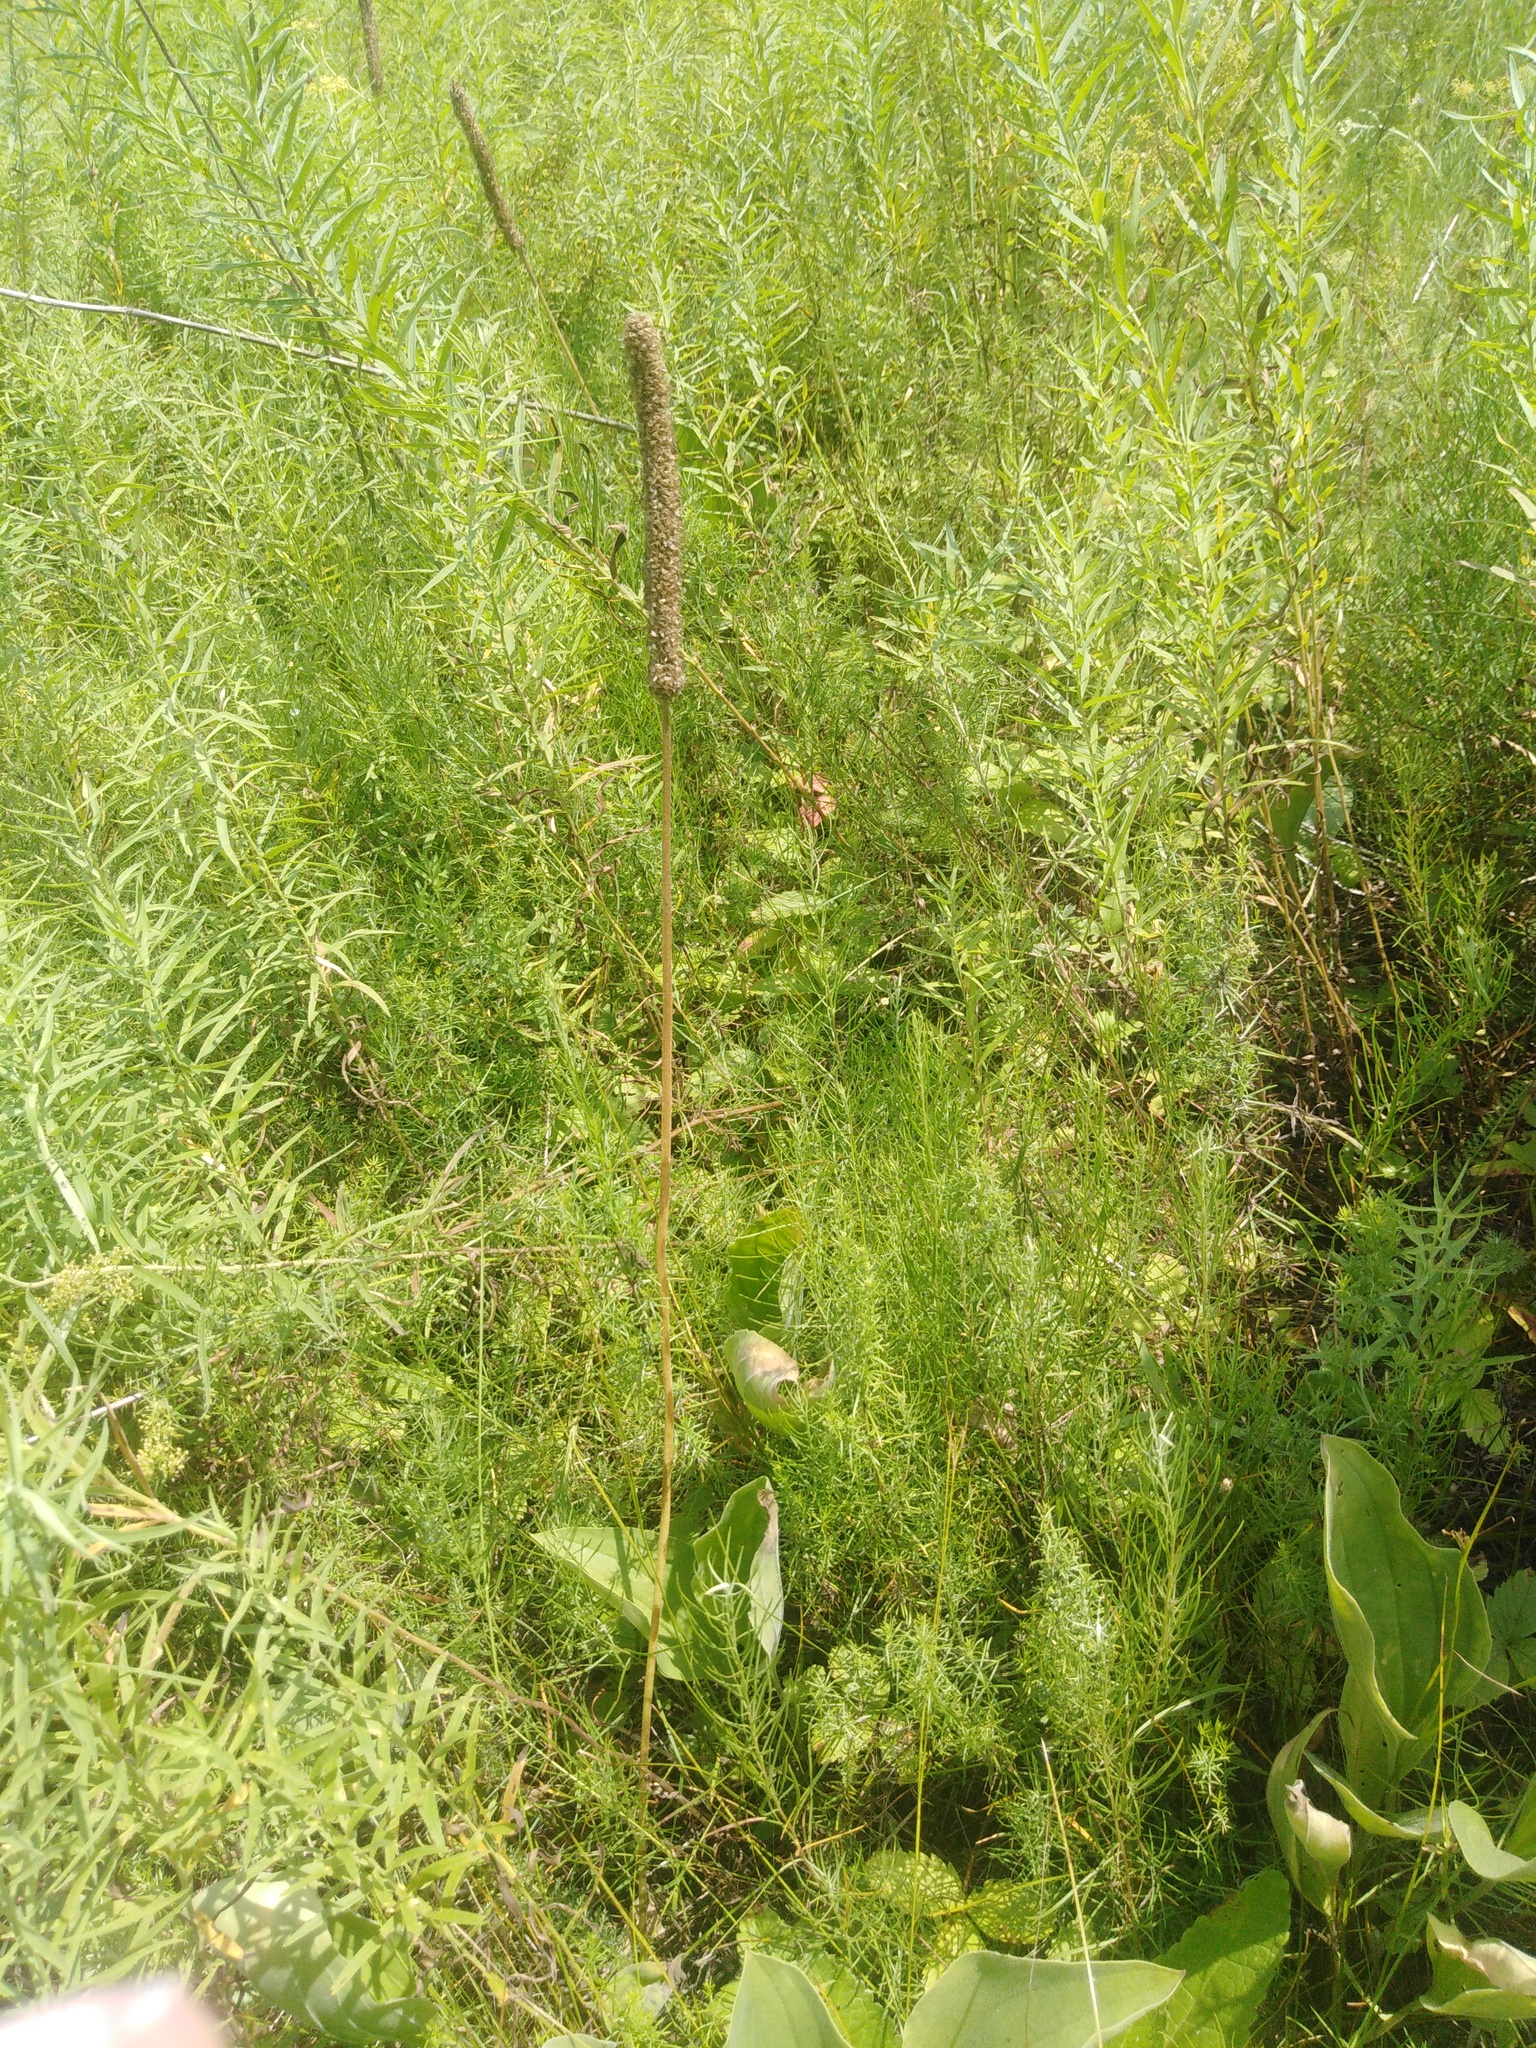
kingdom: Plantae
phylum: Tracheophyta
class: Magnoliopsida
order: Lamiales
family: Plantaginaceae
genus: Plantago
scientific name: Plantago maxima
